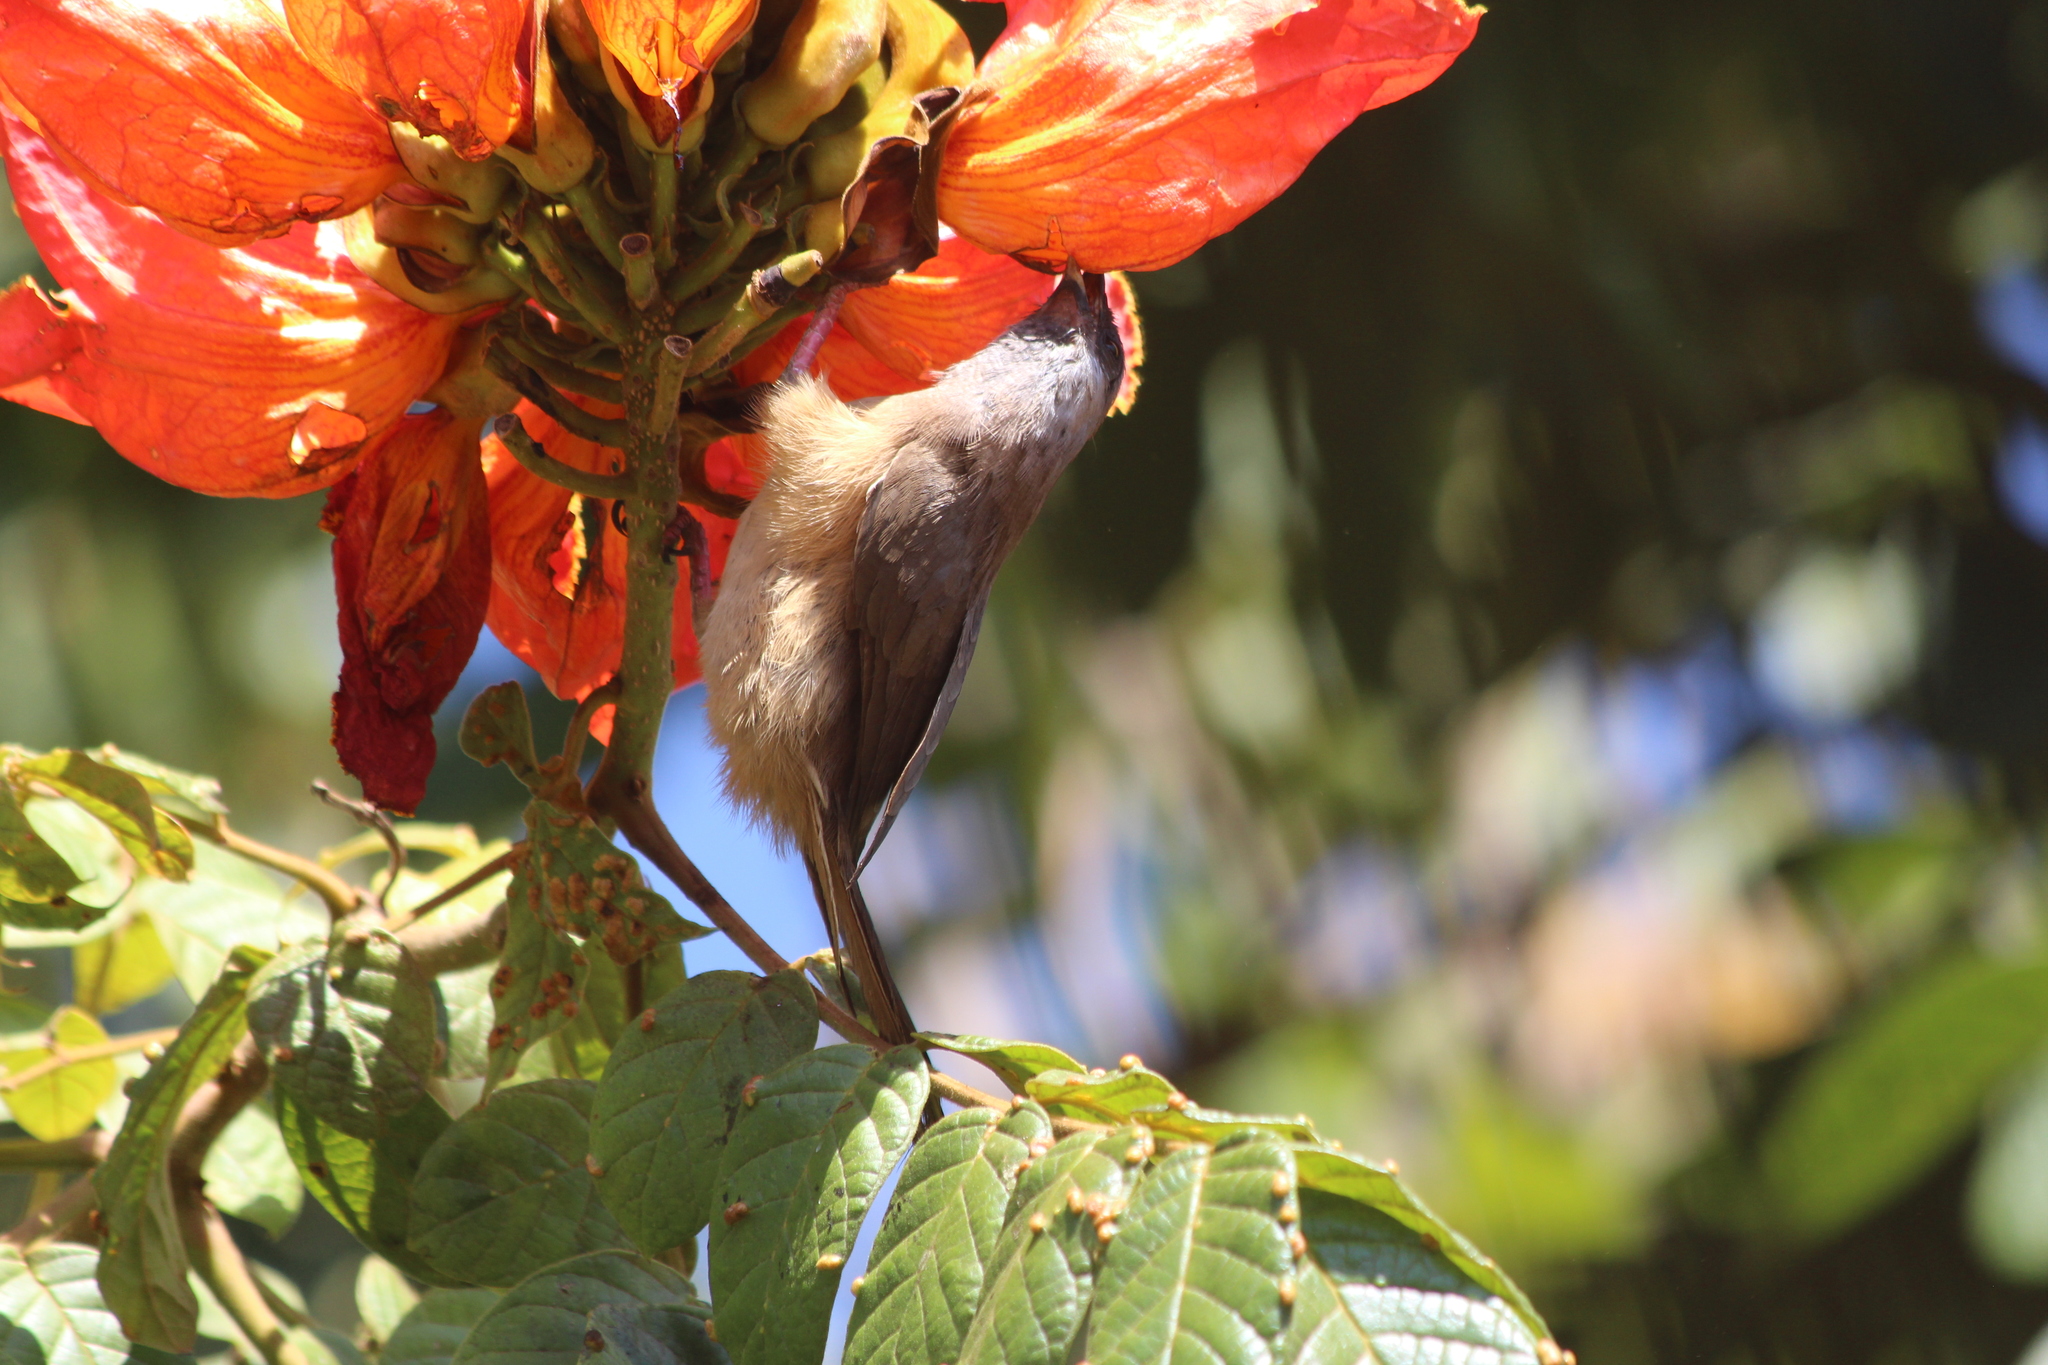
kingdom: Animalia
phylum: Chordata
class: Aves
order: Coliiformes
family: Coliidae
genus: Colius
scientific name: Colius striatus
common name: Speckled mousebird
